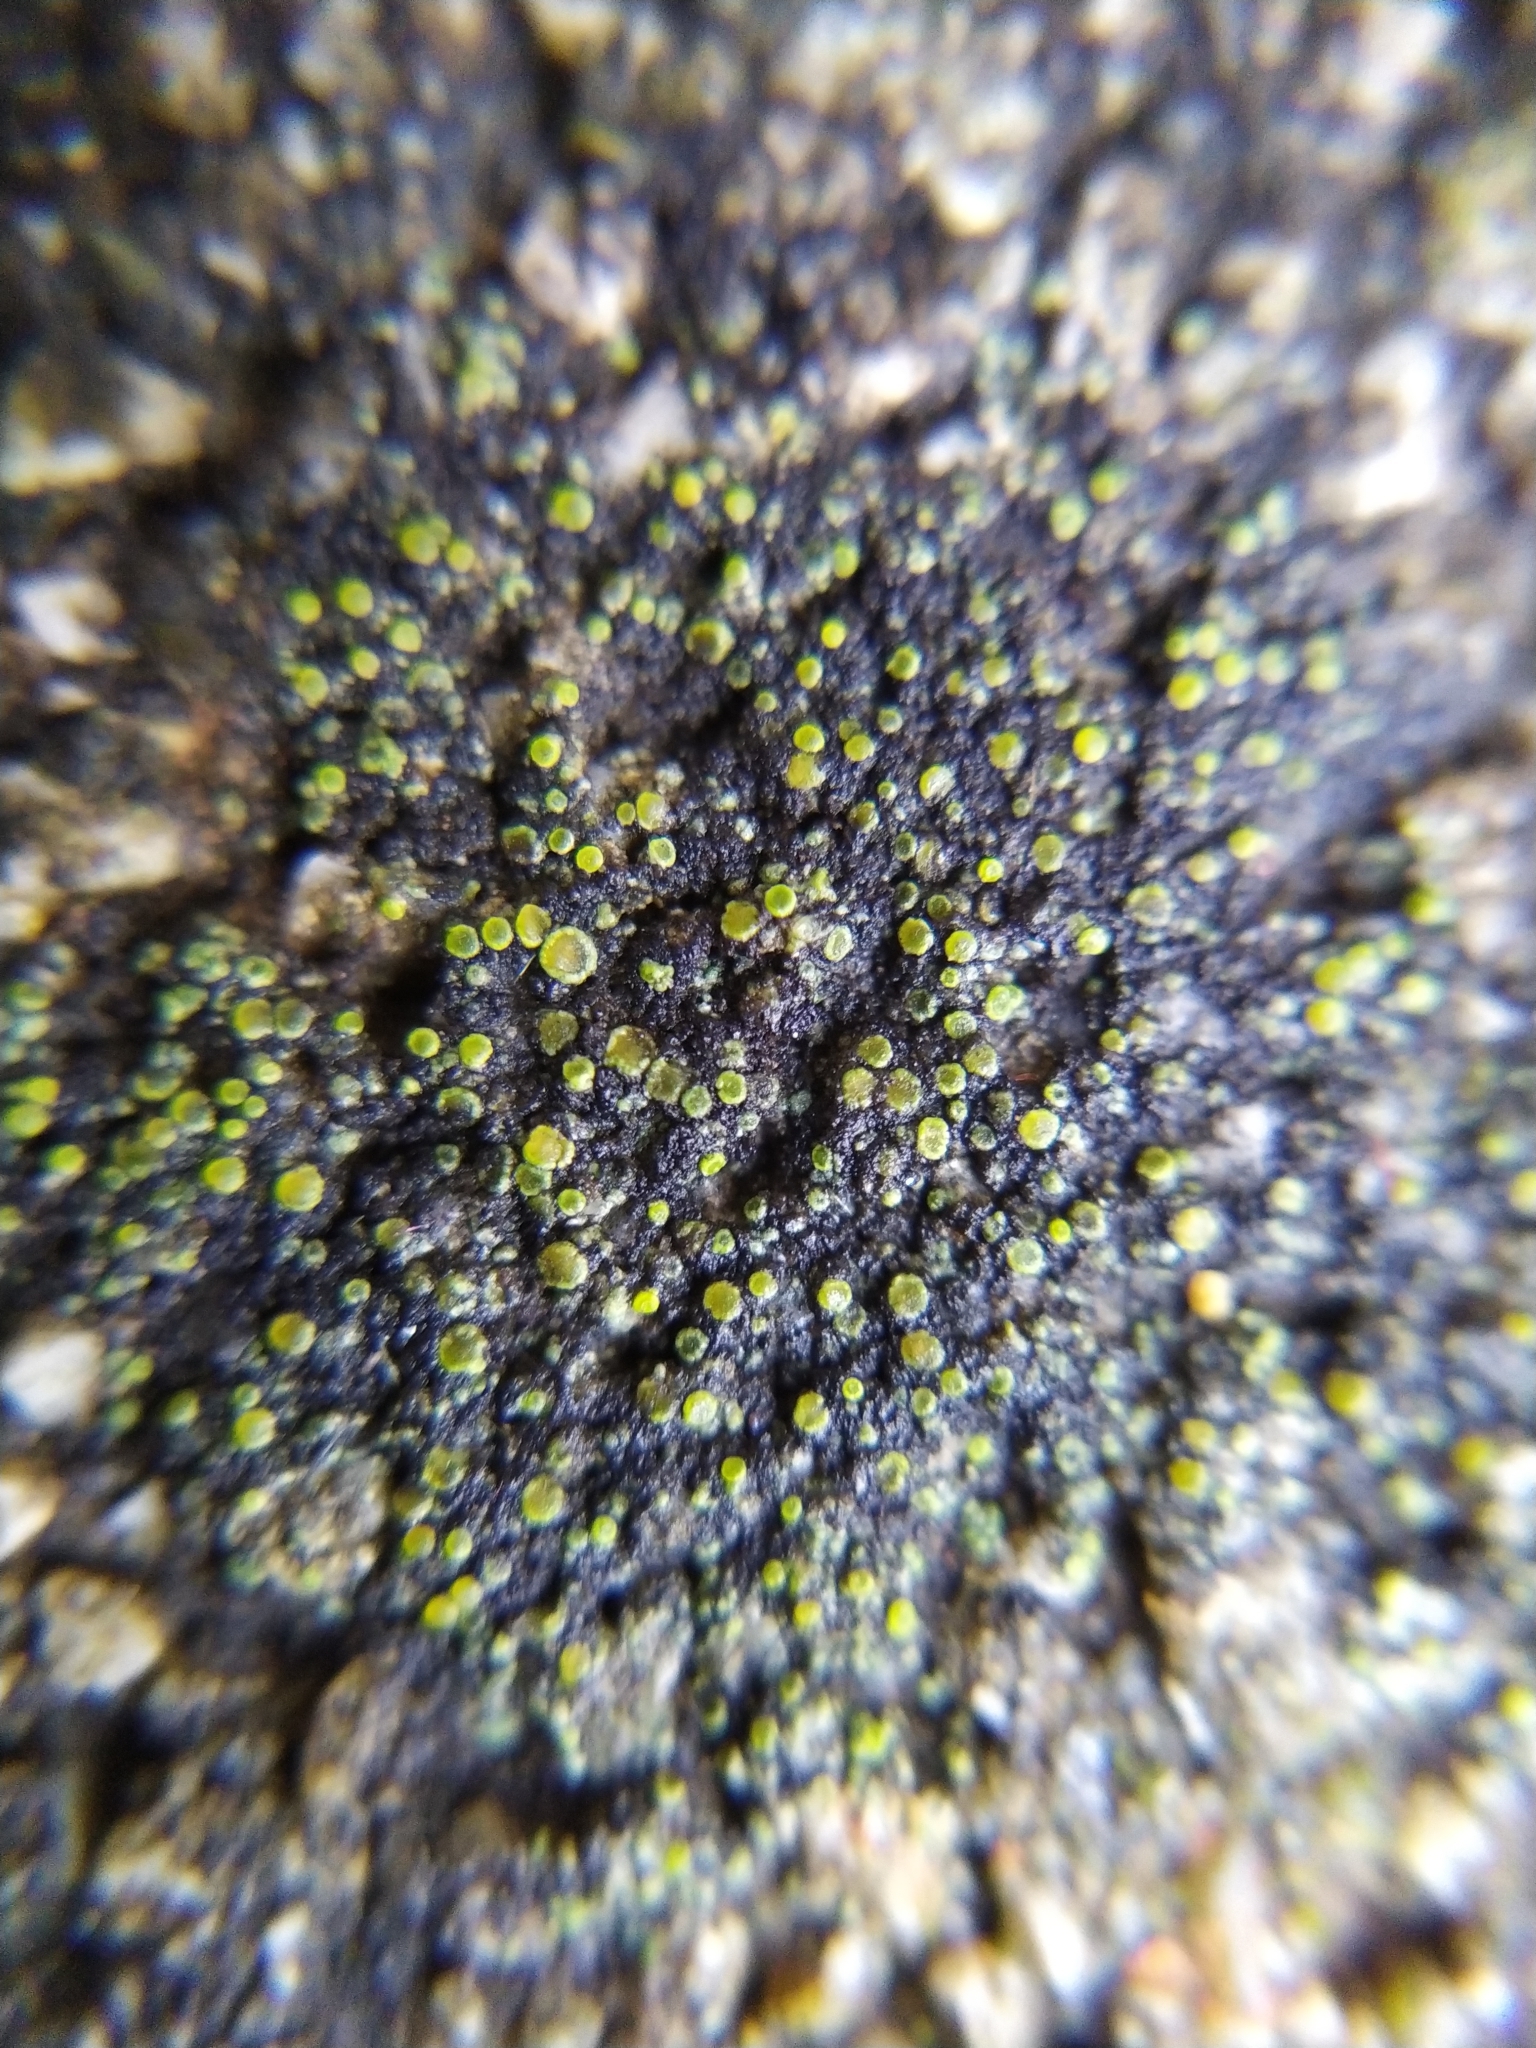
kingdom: Fungi
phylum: Ascomycota
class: Candelariomycetes
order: Candelariales
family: Candelariaceae
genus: Candelariella
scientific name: Candelariella aurella
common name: Hidden goldspeck lichen
